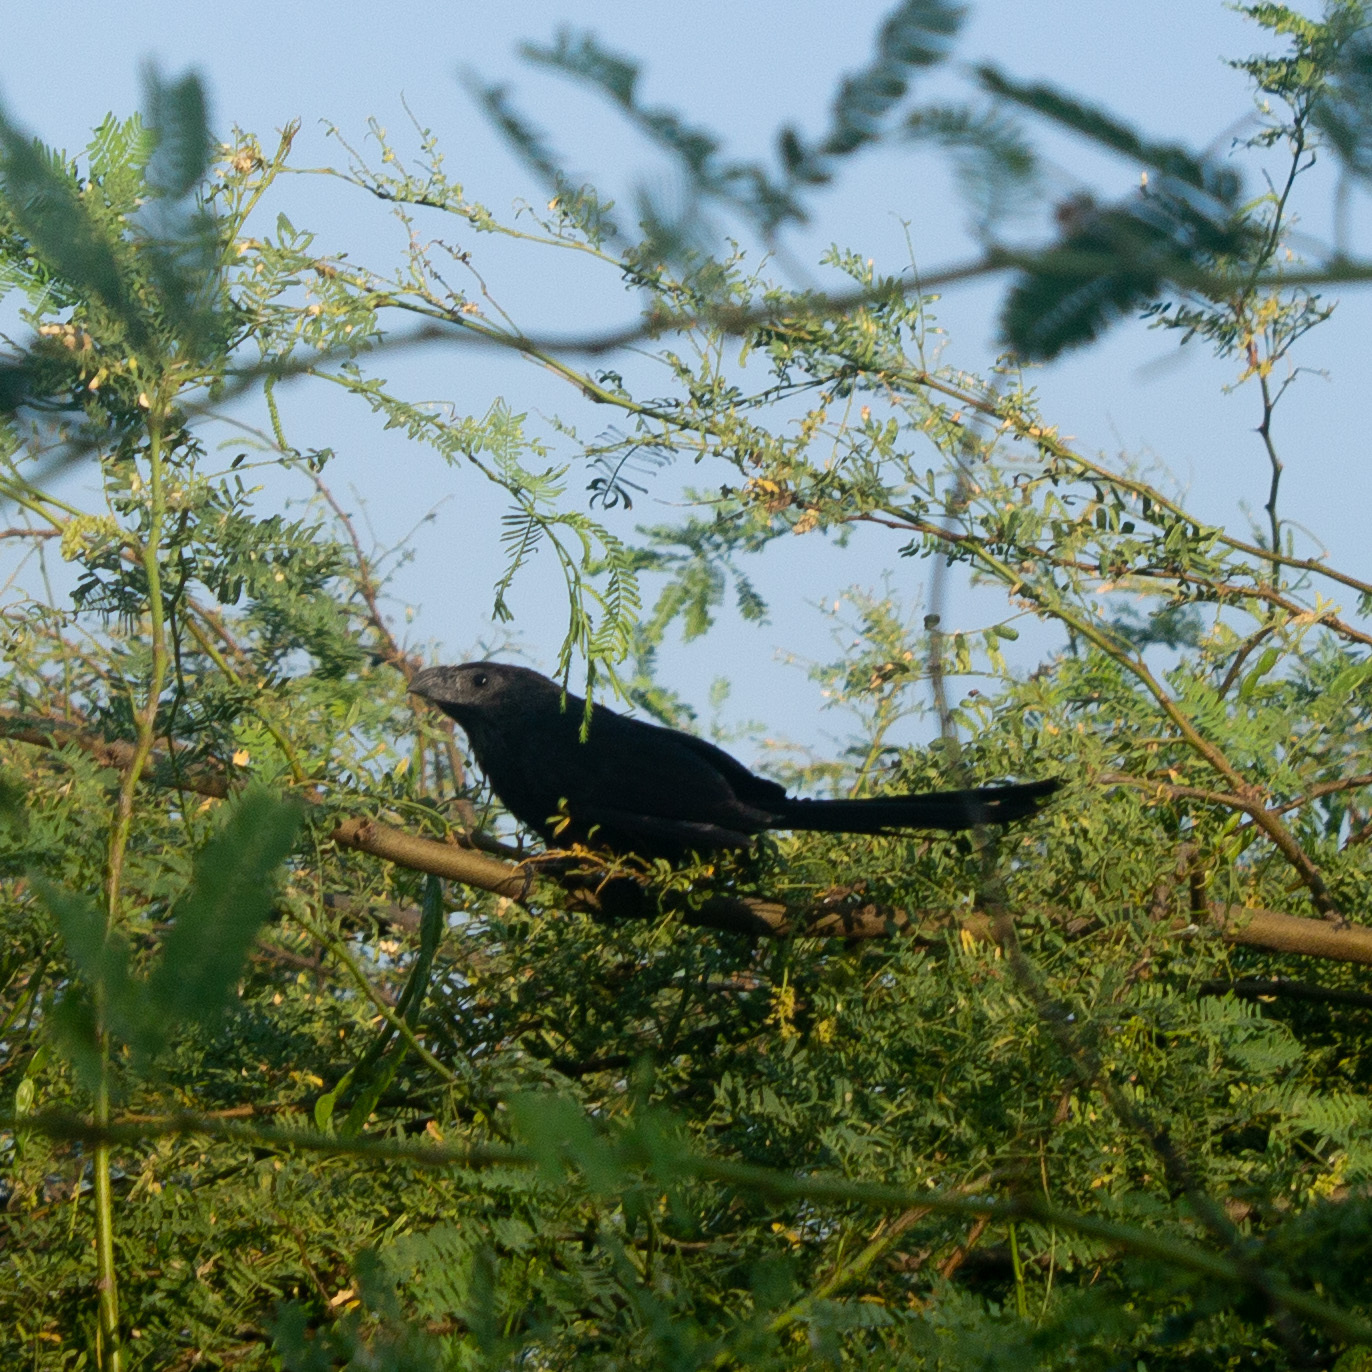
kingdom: Animalia
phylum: Chordata
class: Aves
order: Cuculiformes
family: Cuculidae
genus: Crotophaga
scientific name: Crotophaga sulcirostris
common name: Groove-billed ani
